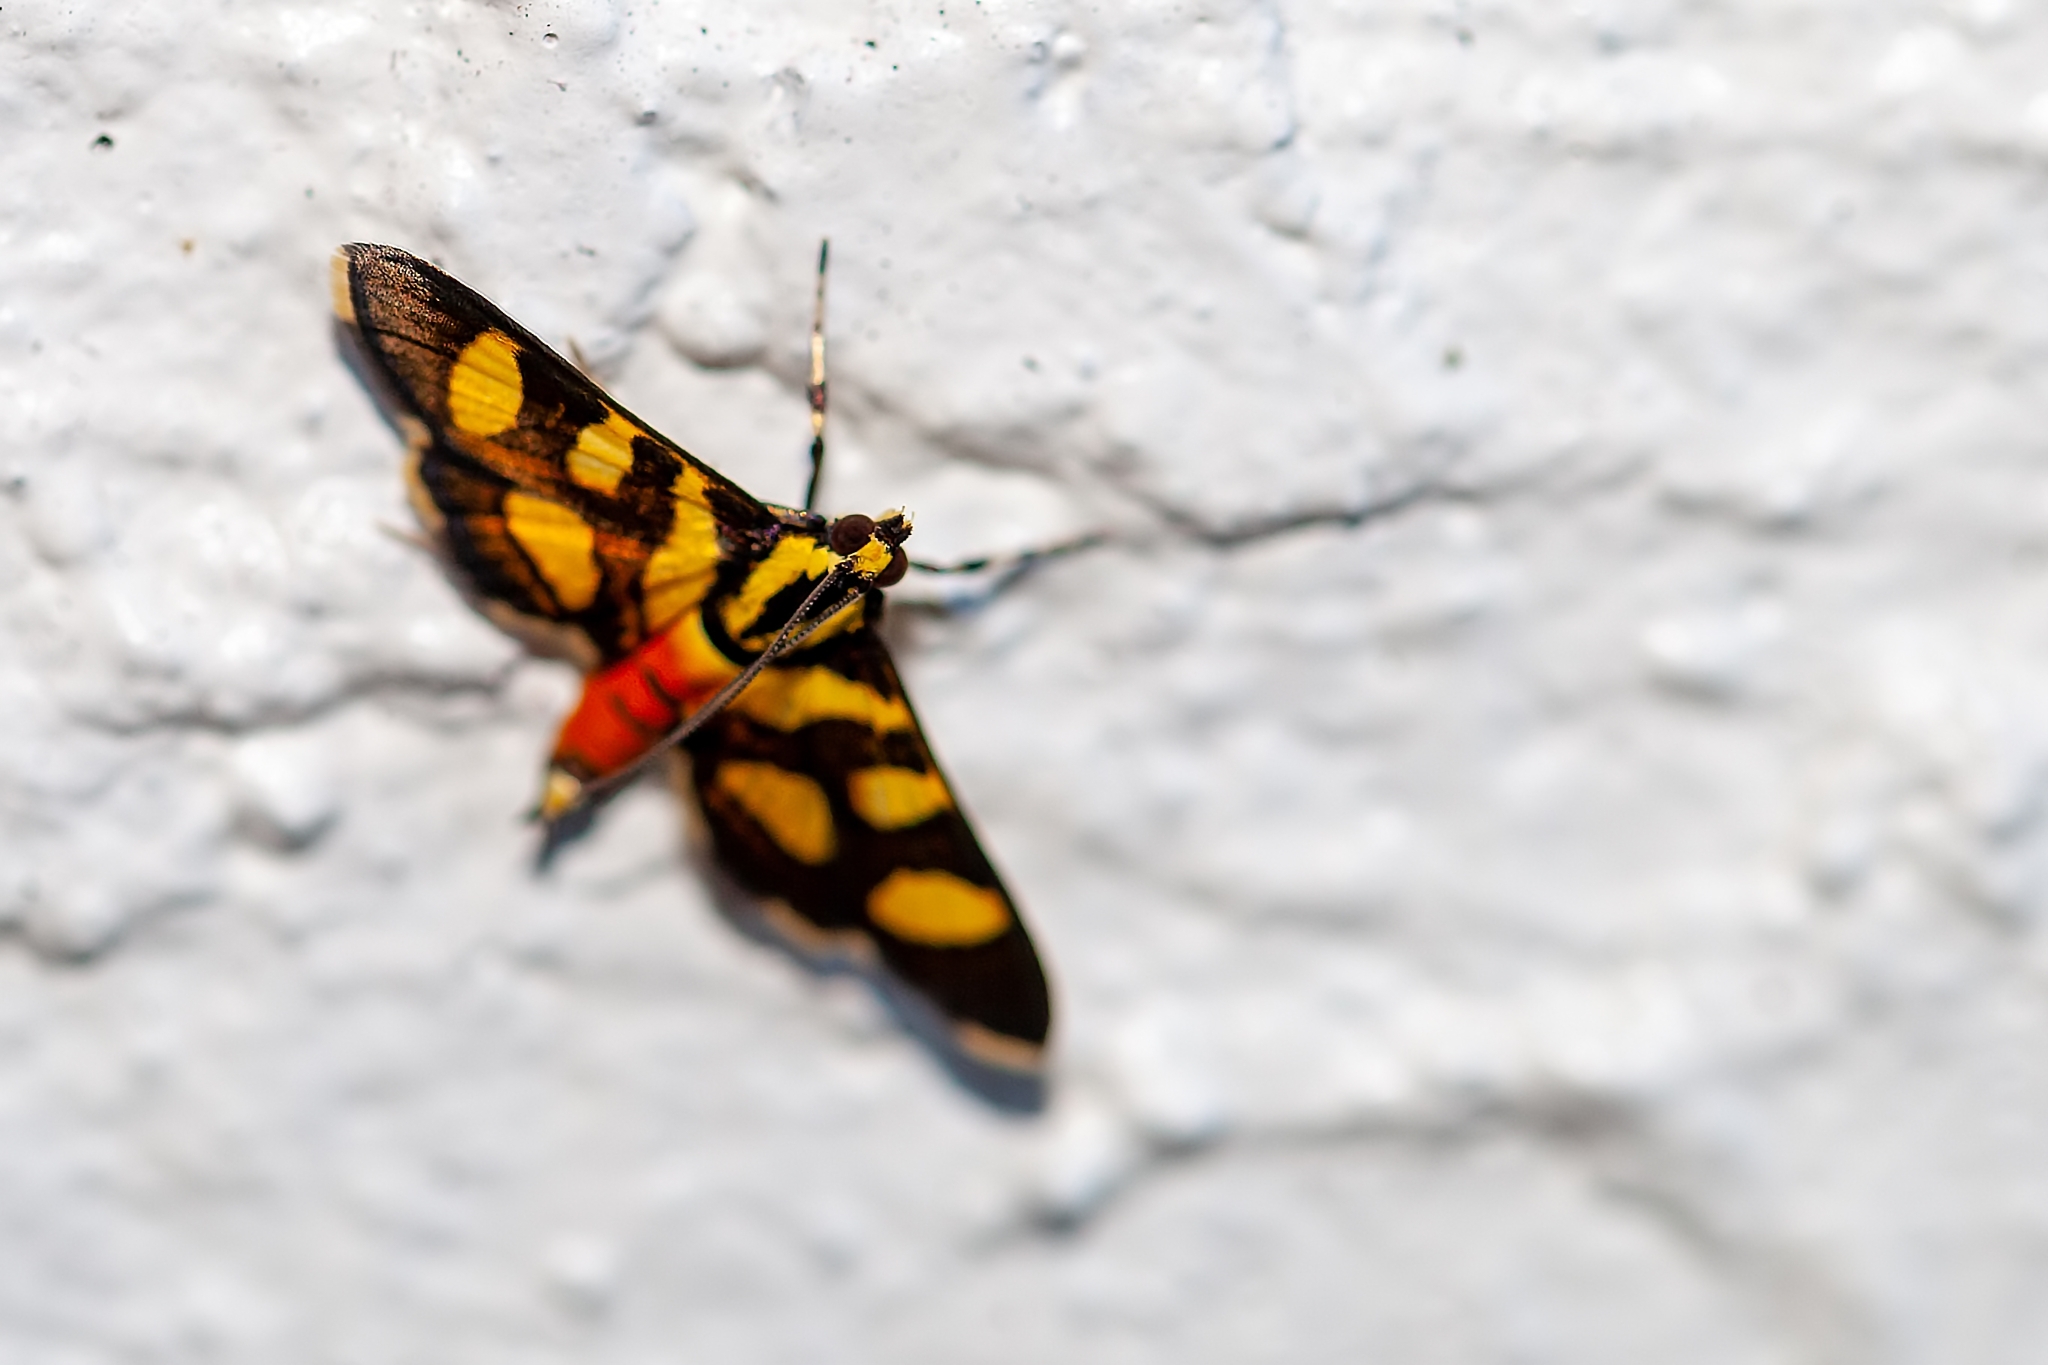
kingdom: Animalia
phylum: Arthropoda
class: Insecta
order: Lepidoptera
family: Crambidae
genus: Syngamia
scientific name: Syngamia florella
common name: Orange-spotted flower moth
